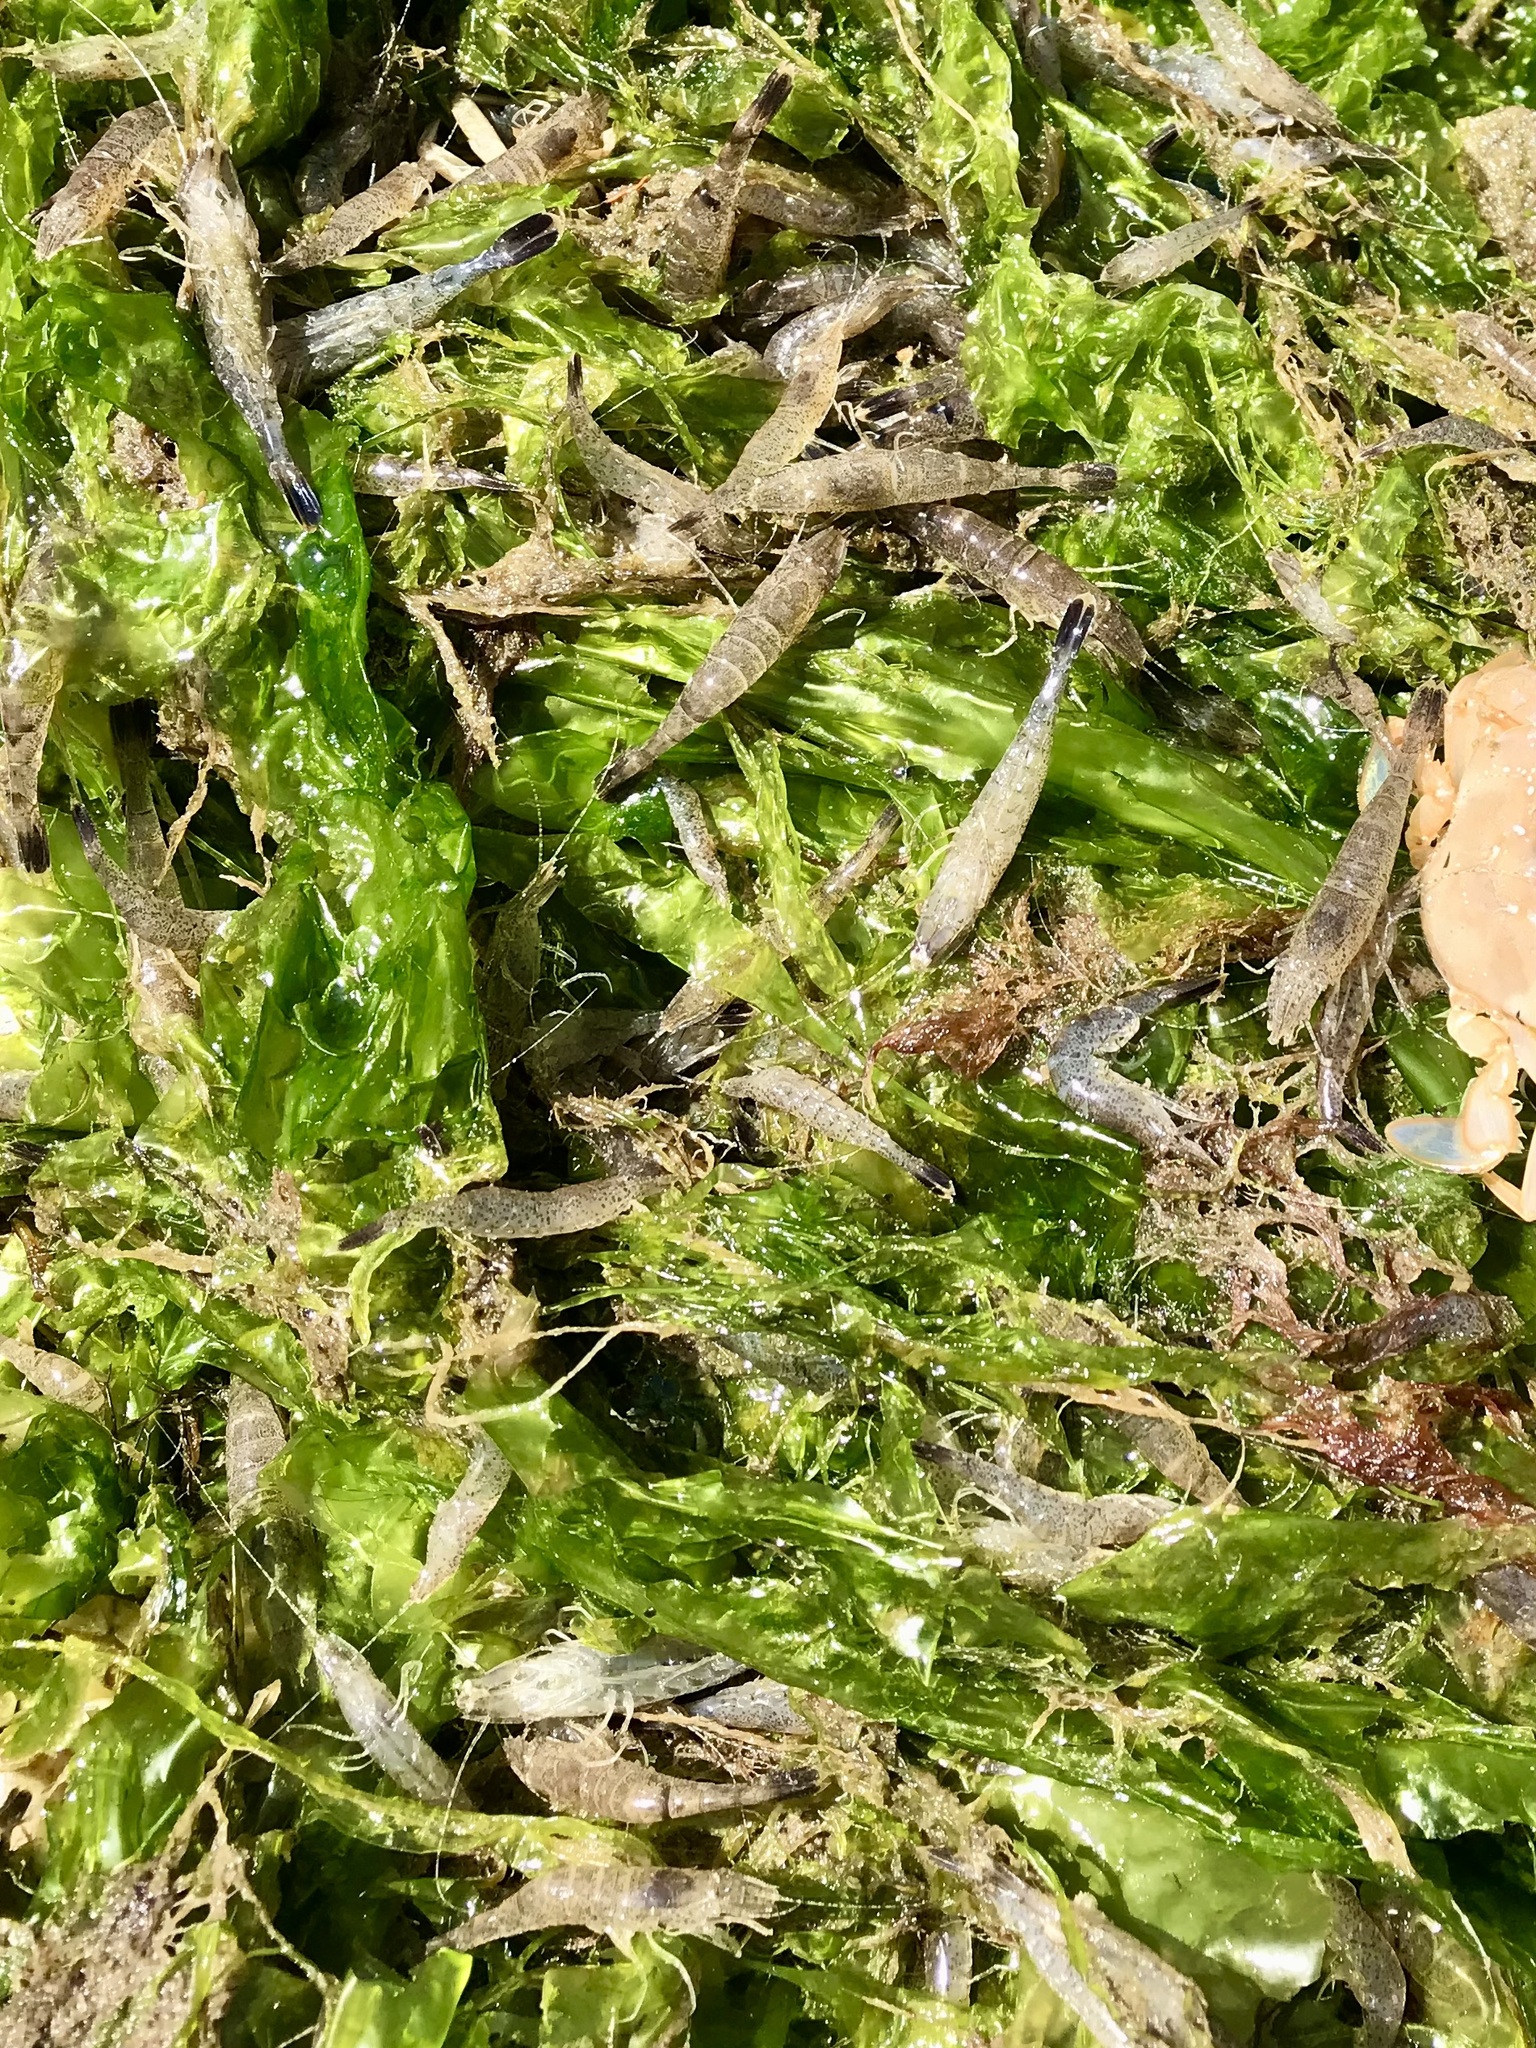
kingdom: Animalia
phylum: Arthropoda
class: Malacostraca
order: Decapoda
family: Crangonidae
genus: Crangon
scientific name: Crangon crangon
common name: Brown shrimp
